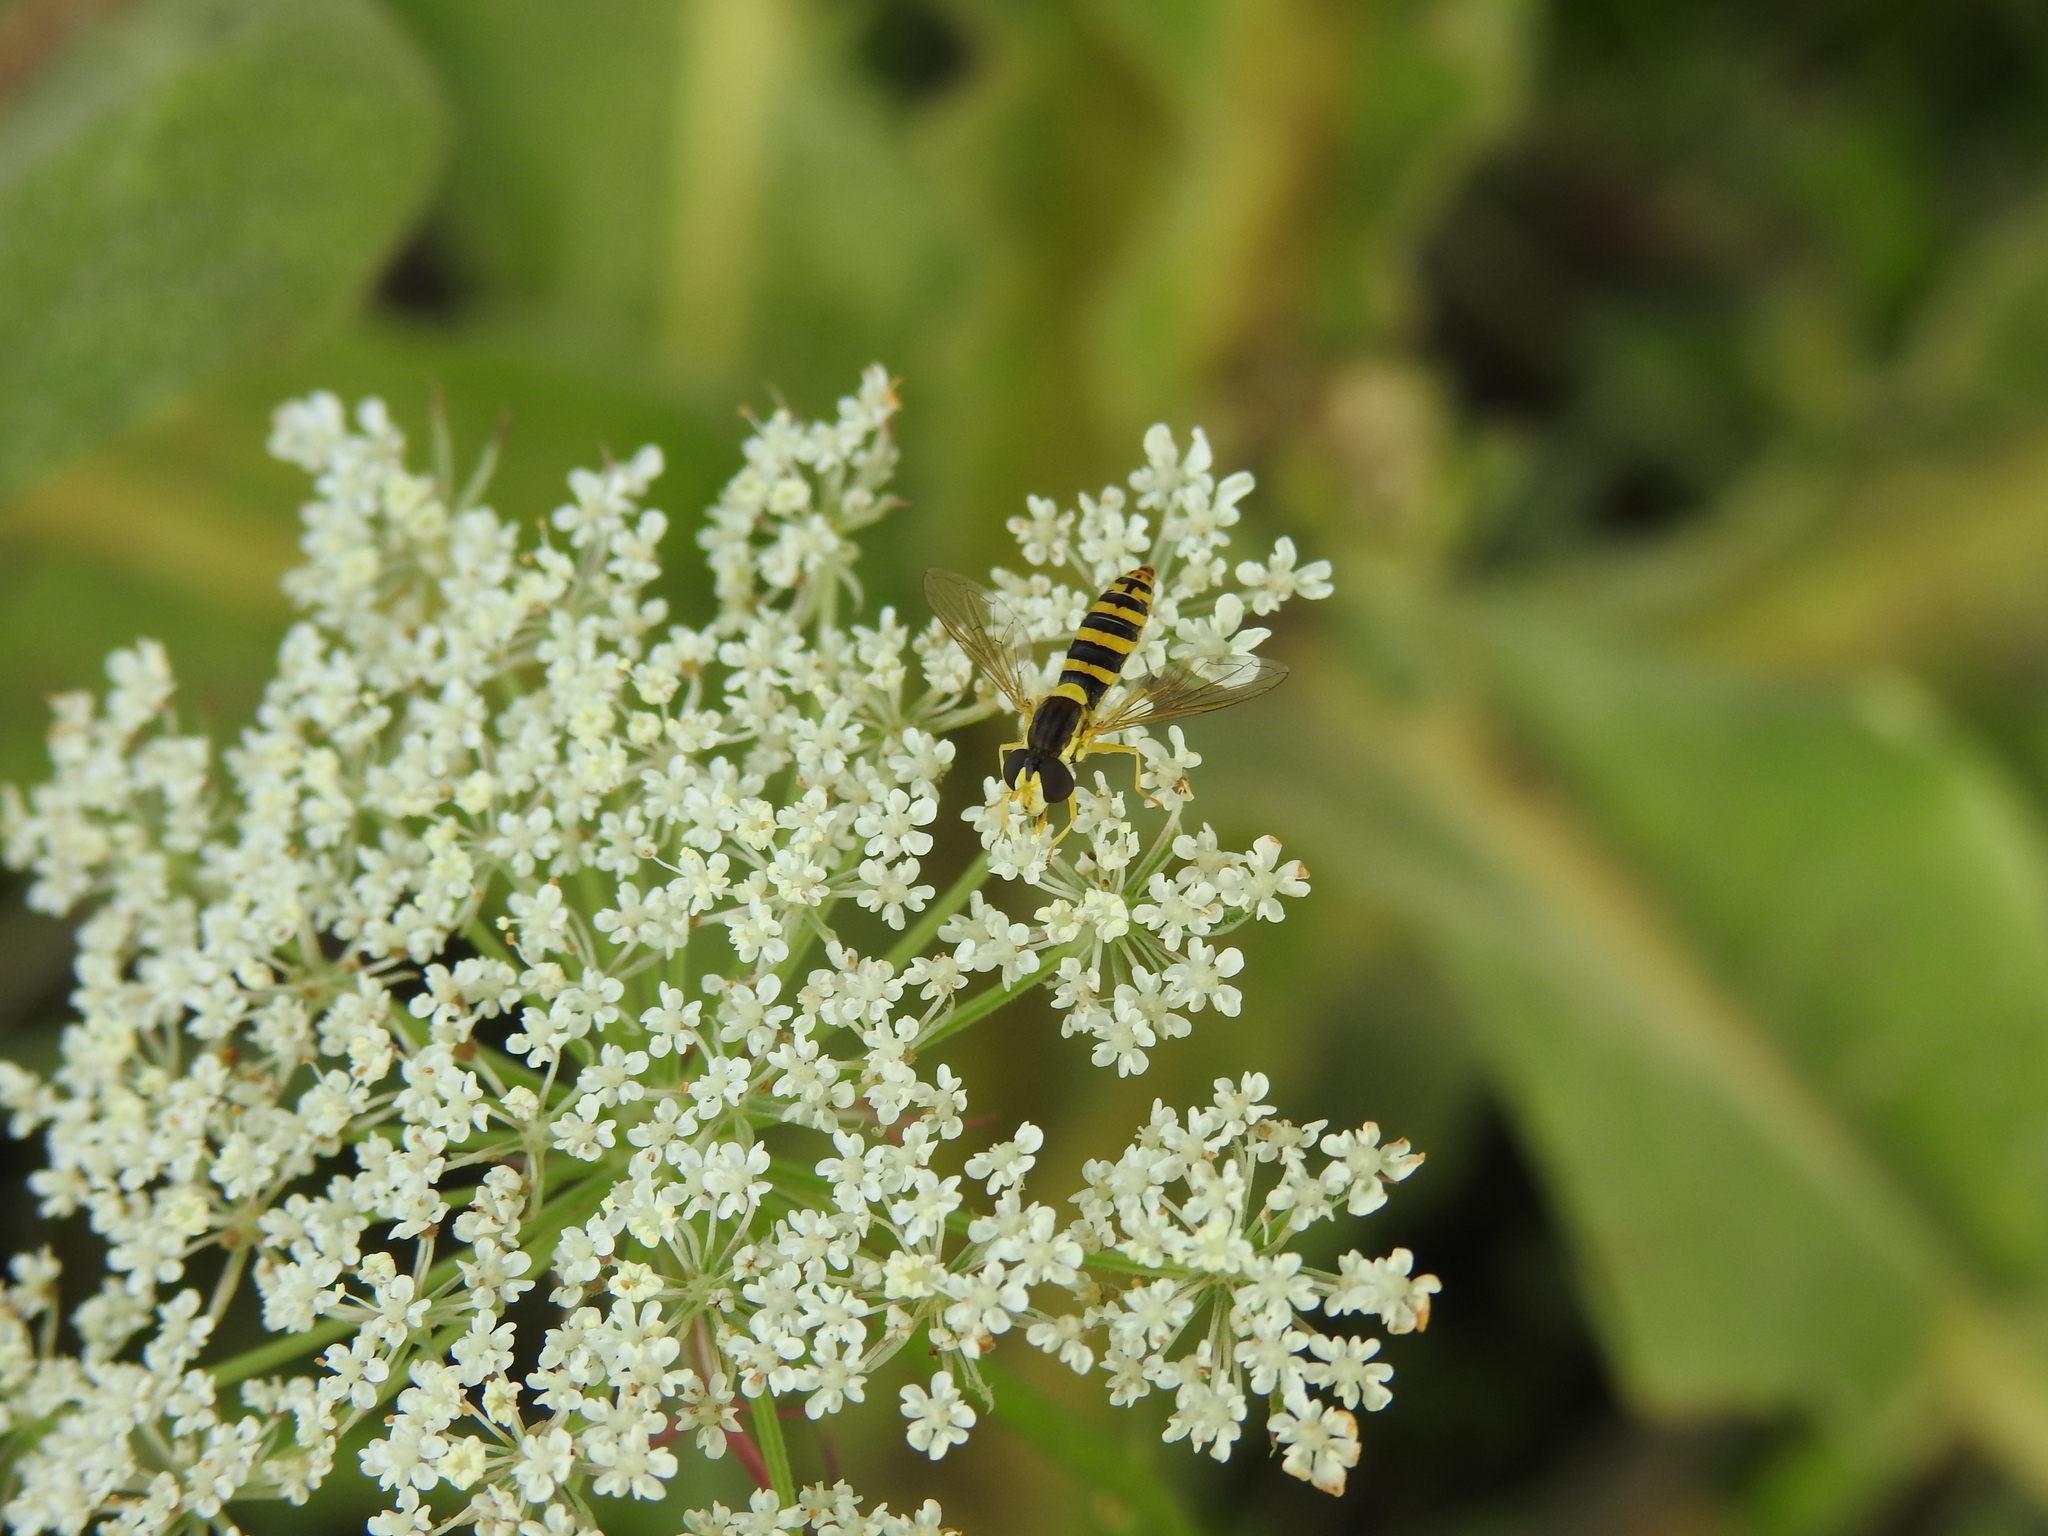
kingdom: Animalia
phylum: Arthropoda
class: Insecta
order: Diptera
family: Syrphidae
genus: Sphaerophoria
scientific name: Sphaerophoria
